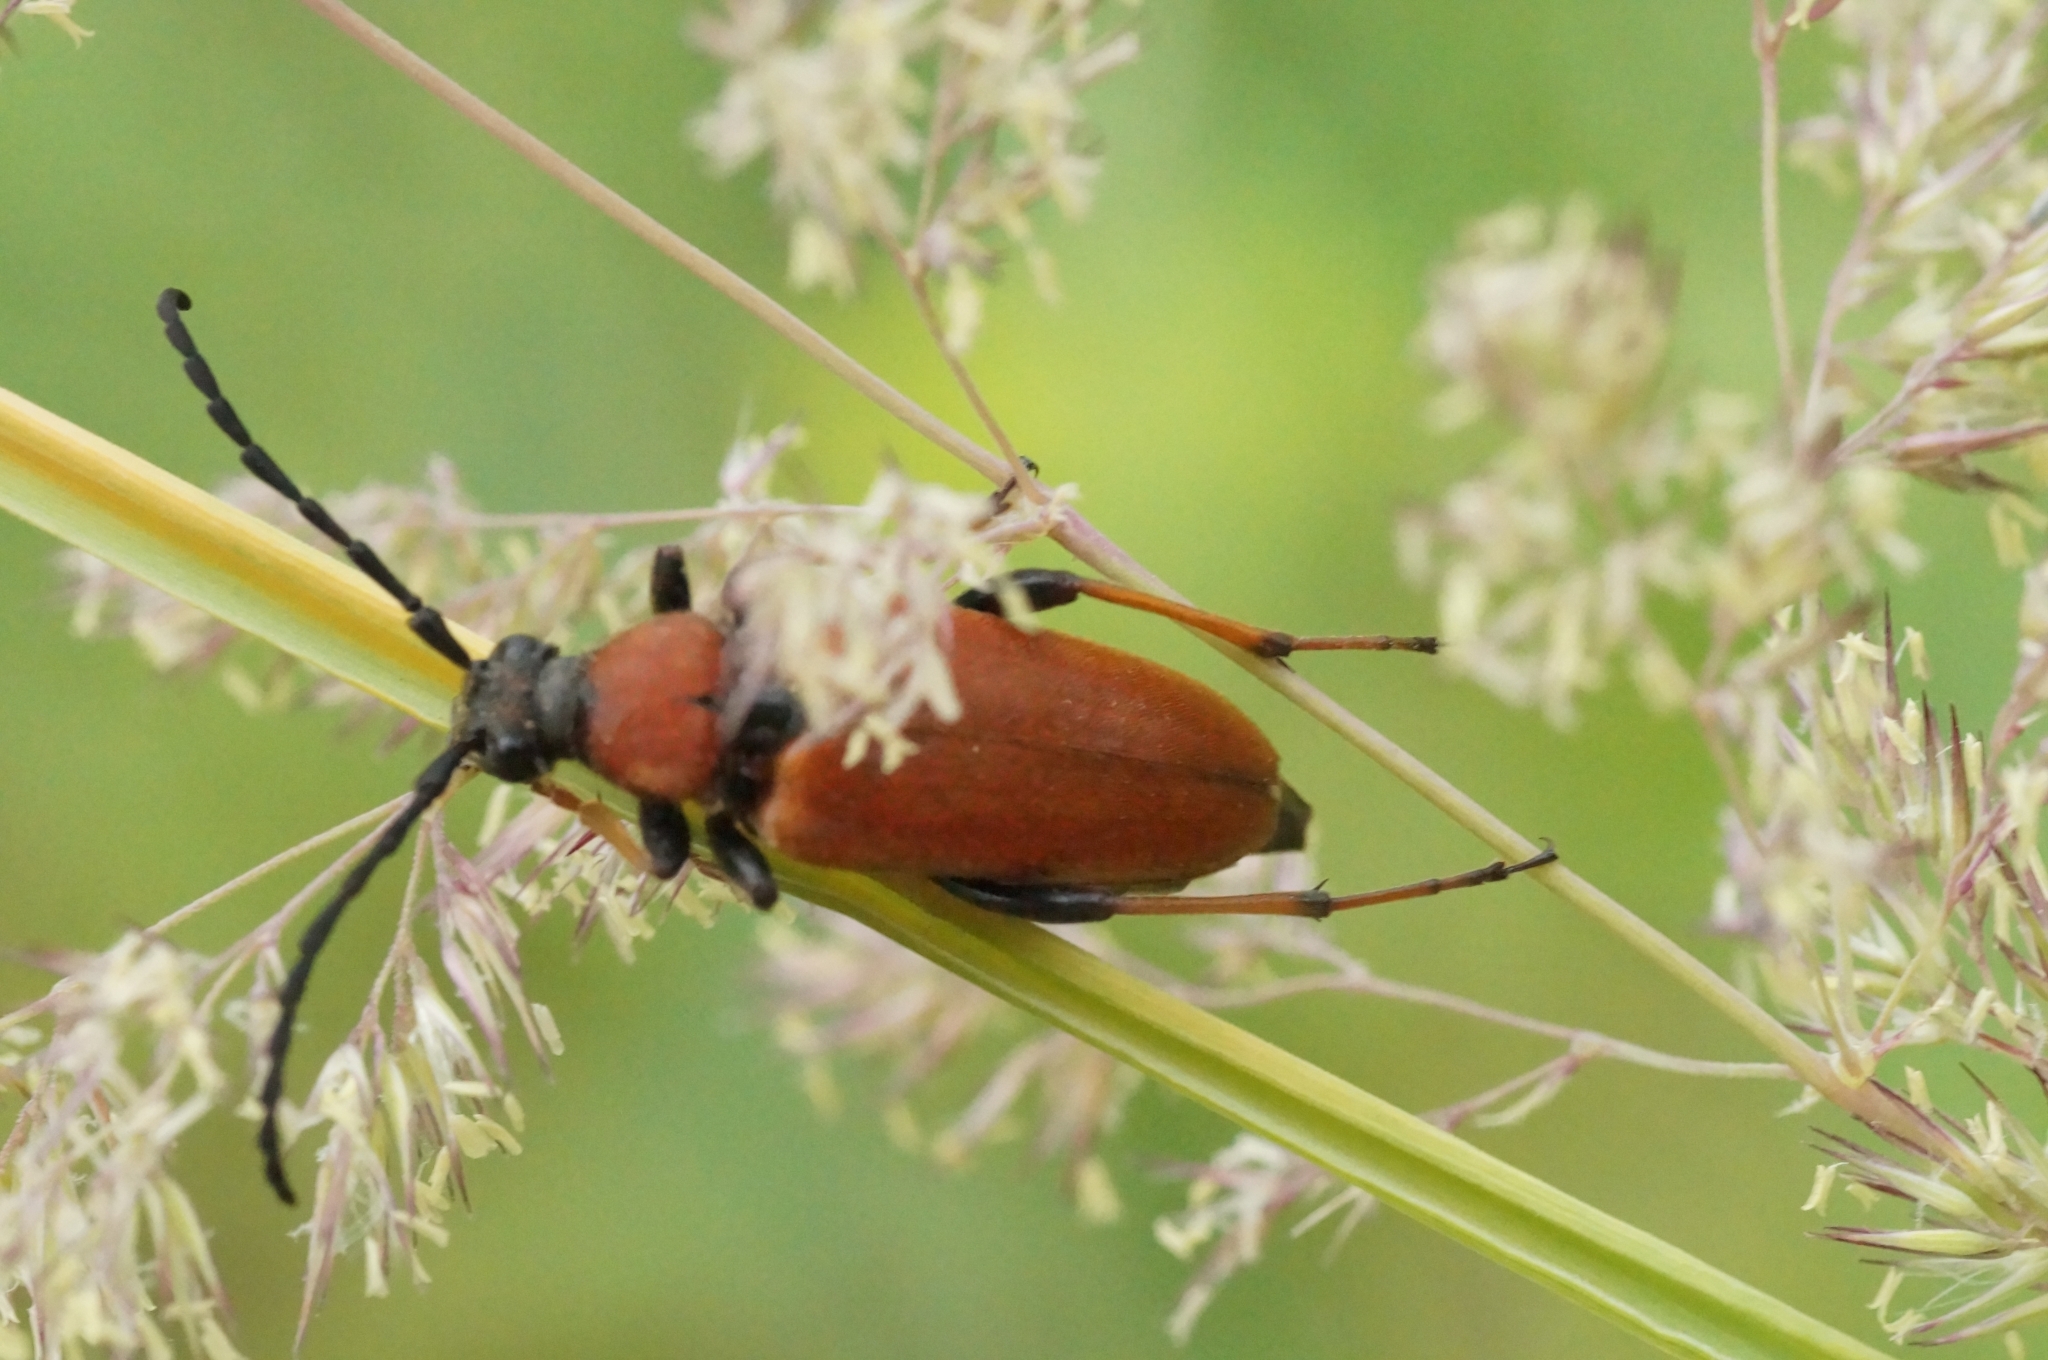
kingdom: Animalia
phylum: Arthropoda
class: Insecta
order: Coleoptera
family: Cerambycidae
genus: Stictoleptura
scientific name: Stictoleptura rubra
